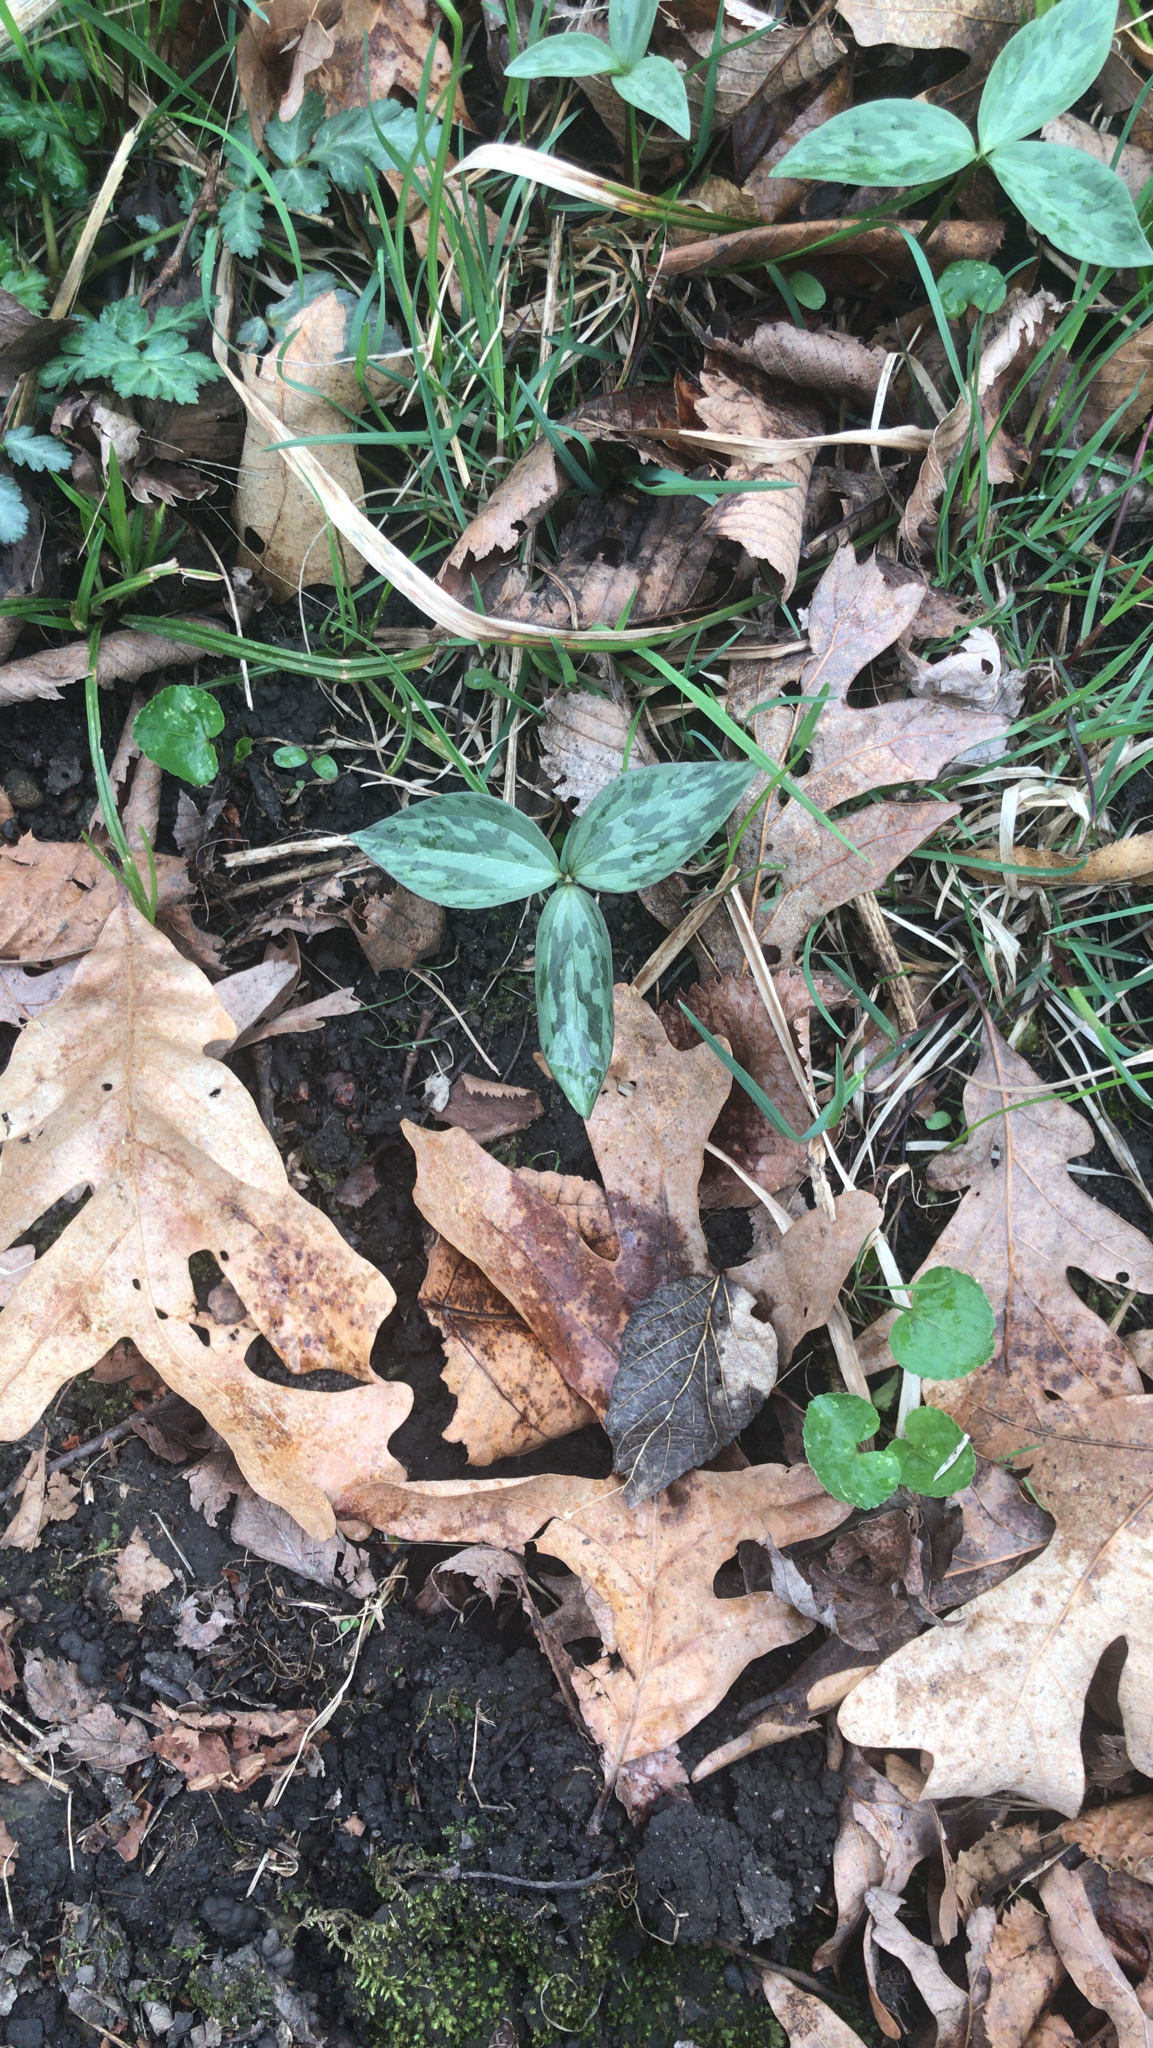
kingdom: Plantae
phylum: Tracheophyta
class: Liliopsida
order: Liliales
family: Melanthiaceae
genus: Trillium
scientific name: Trillium recurvatum
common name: Bloody butcher
